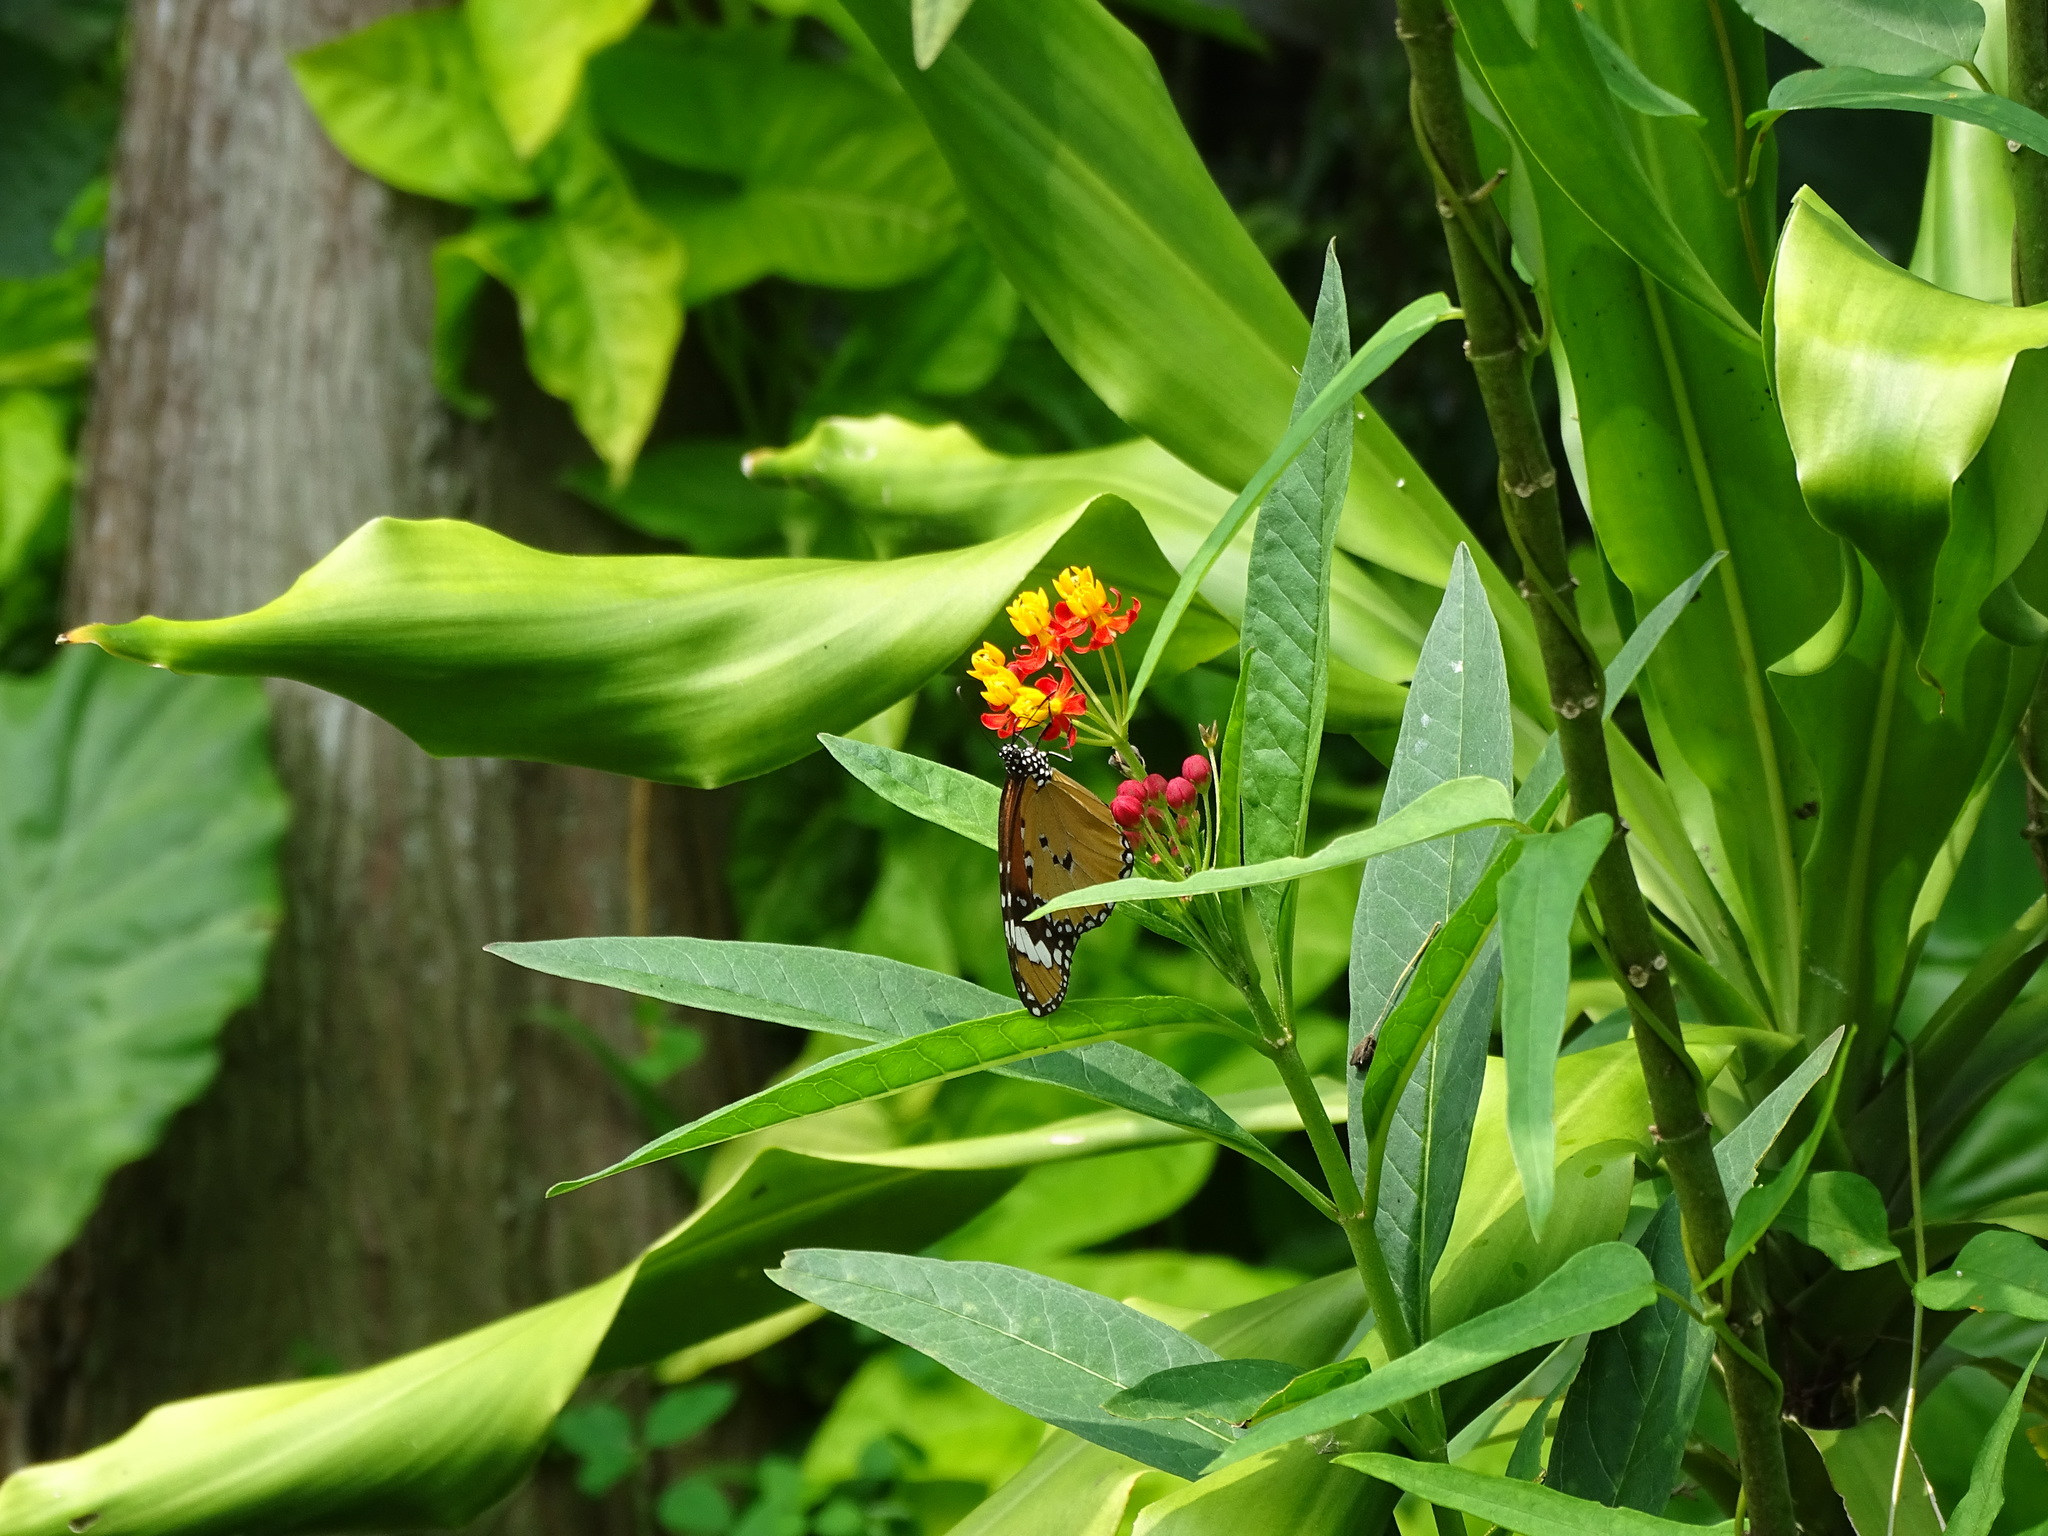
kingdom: Animalia
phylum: Arthropoda
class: Insecta
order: Lepidoptera
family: Nymphalidae
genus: Danaus
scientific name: Danaus chrysippus
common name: Plain tiger
